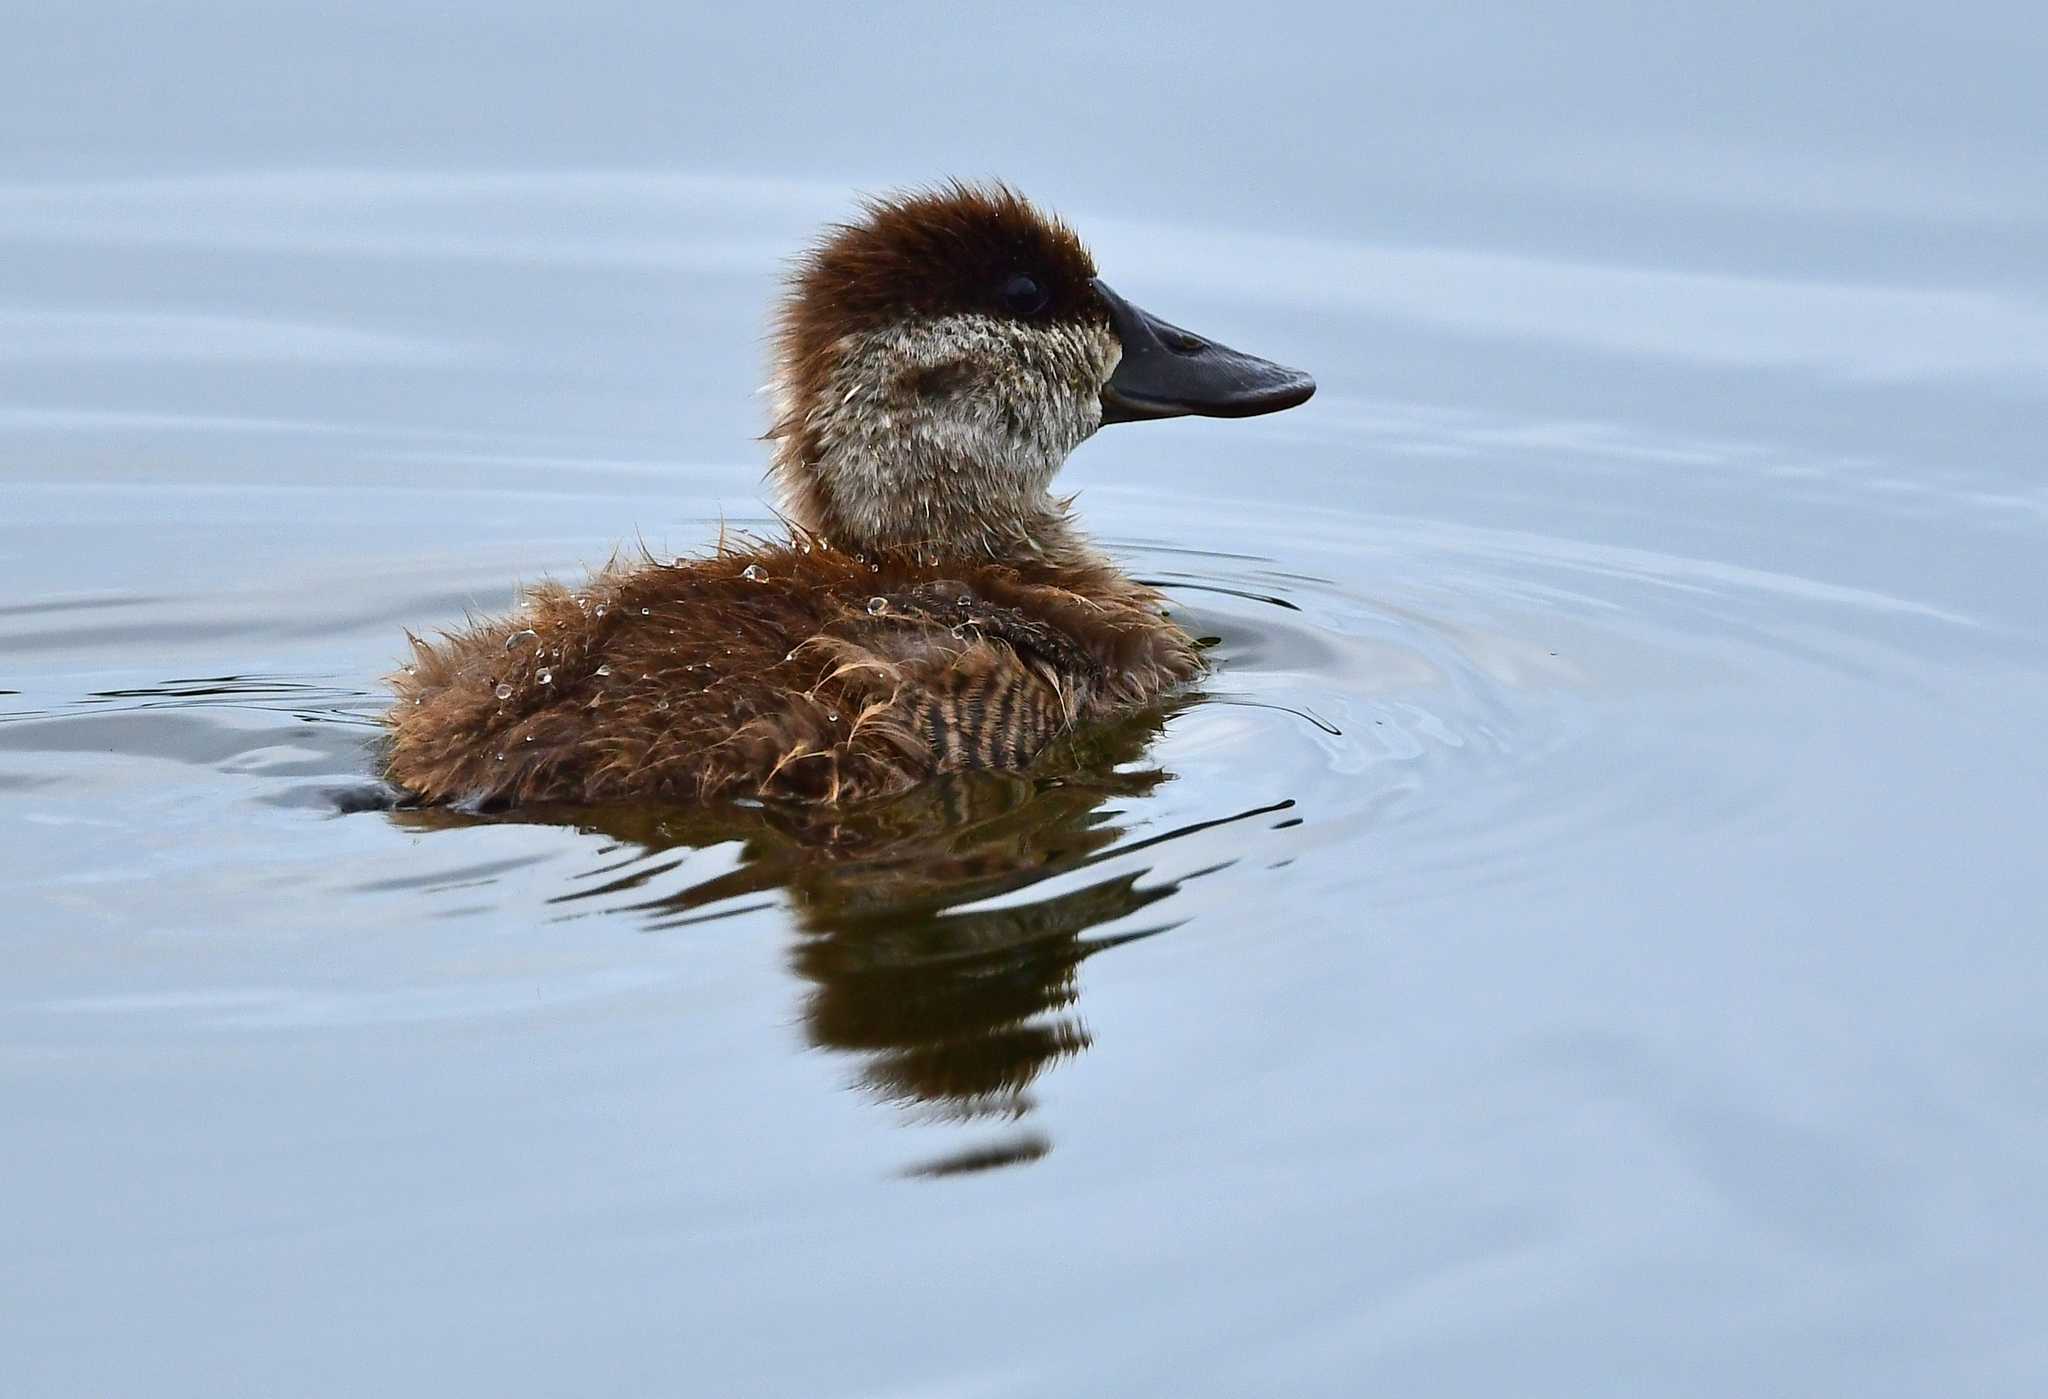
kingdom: Animalia
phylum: Chordata
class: Aves
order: Anseriformes
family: Anatidae
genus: Oxyura
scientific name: Oxyura jamaicensis
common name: Ruddy duck
